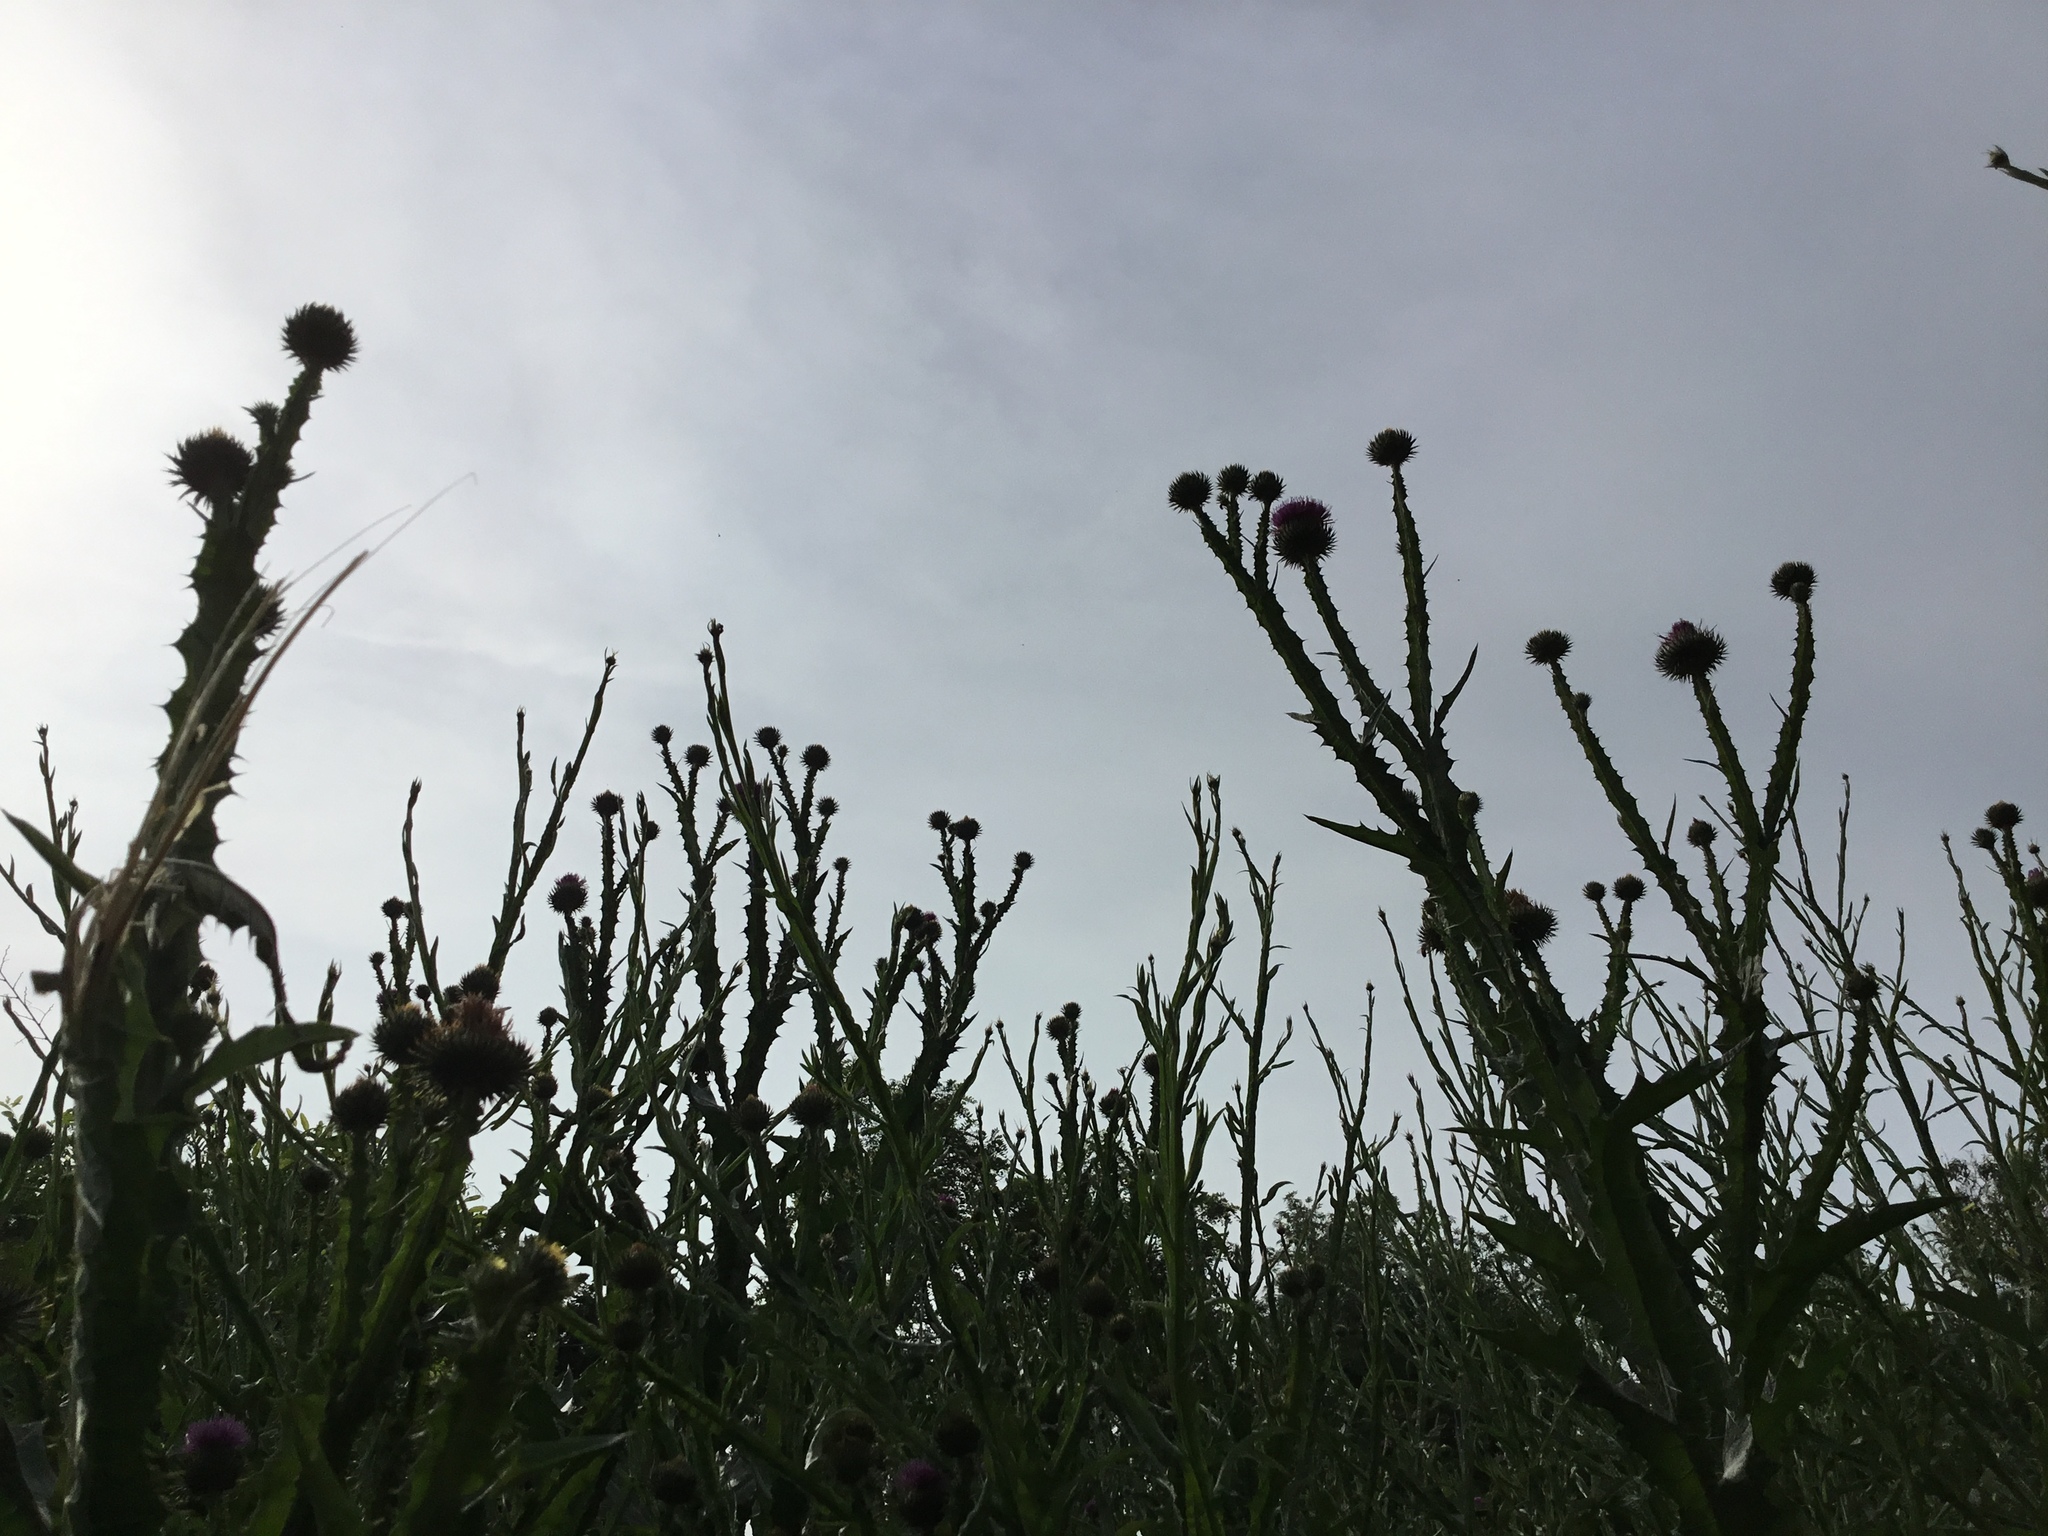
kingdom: Plantae
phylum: Tracheophyta
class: Magnoliopsida
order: Asterales
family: Asteraceae
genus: Onopordum
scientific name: Onopordum acanthium
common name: Scotch thistle
